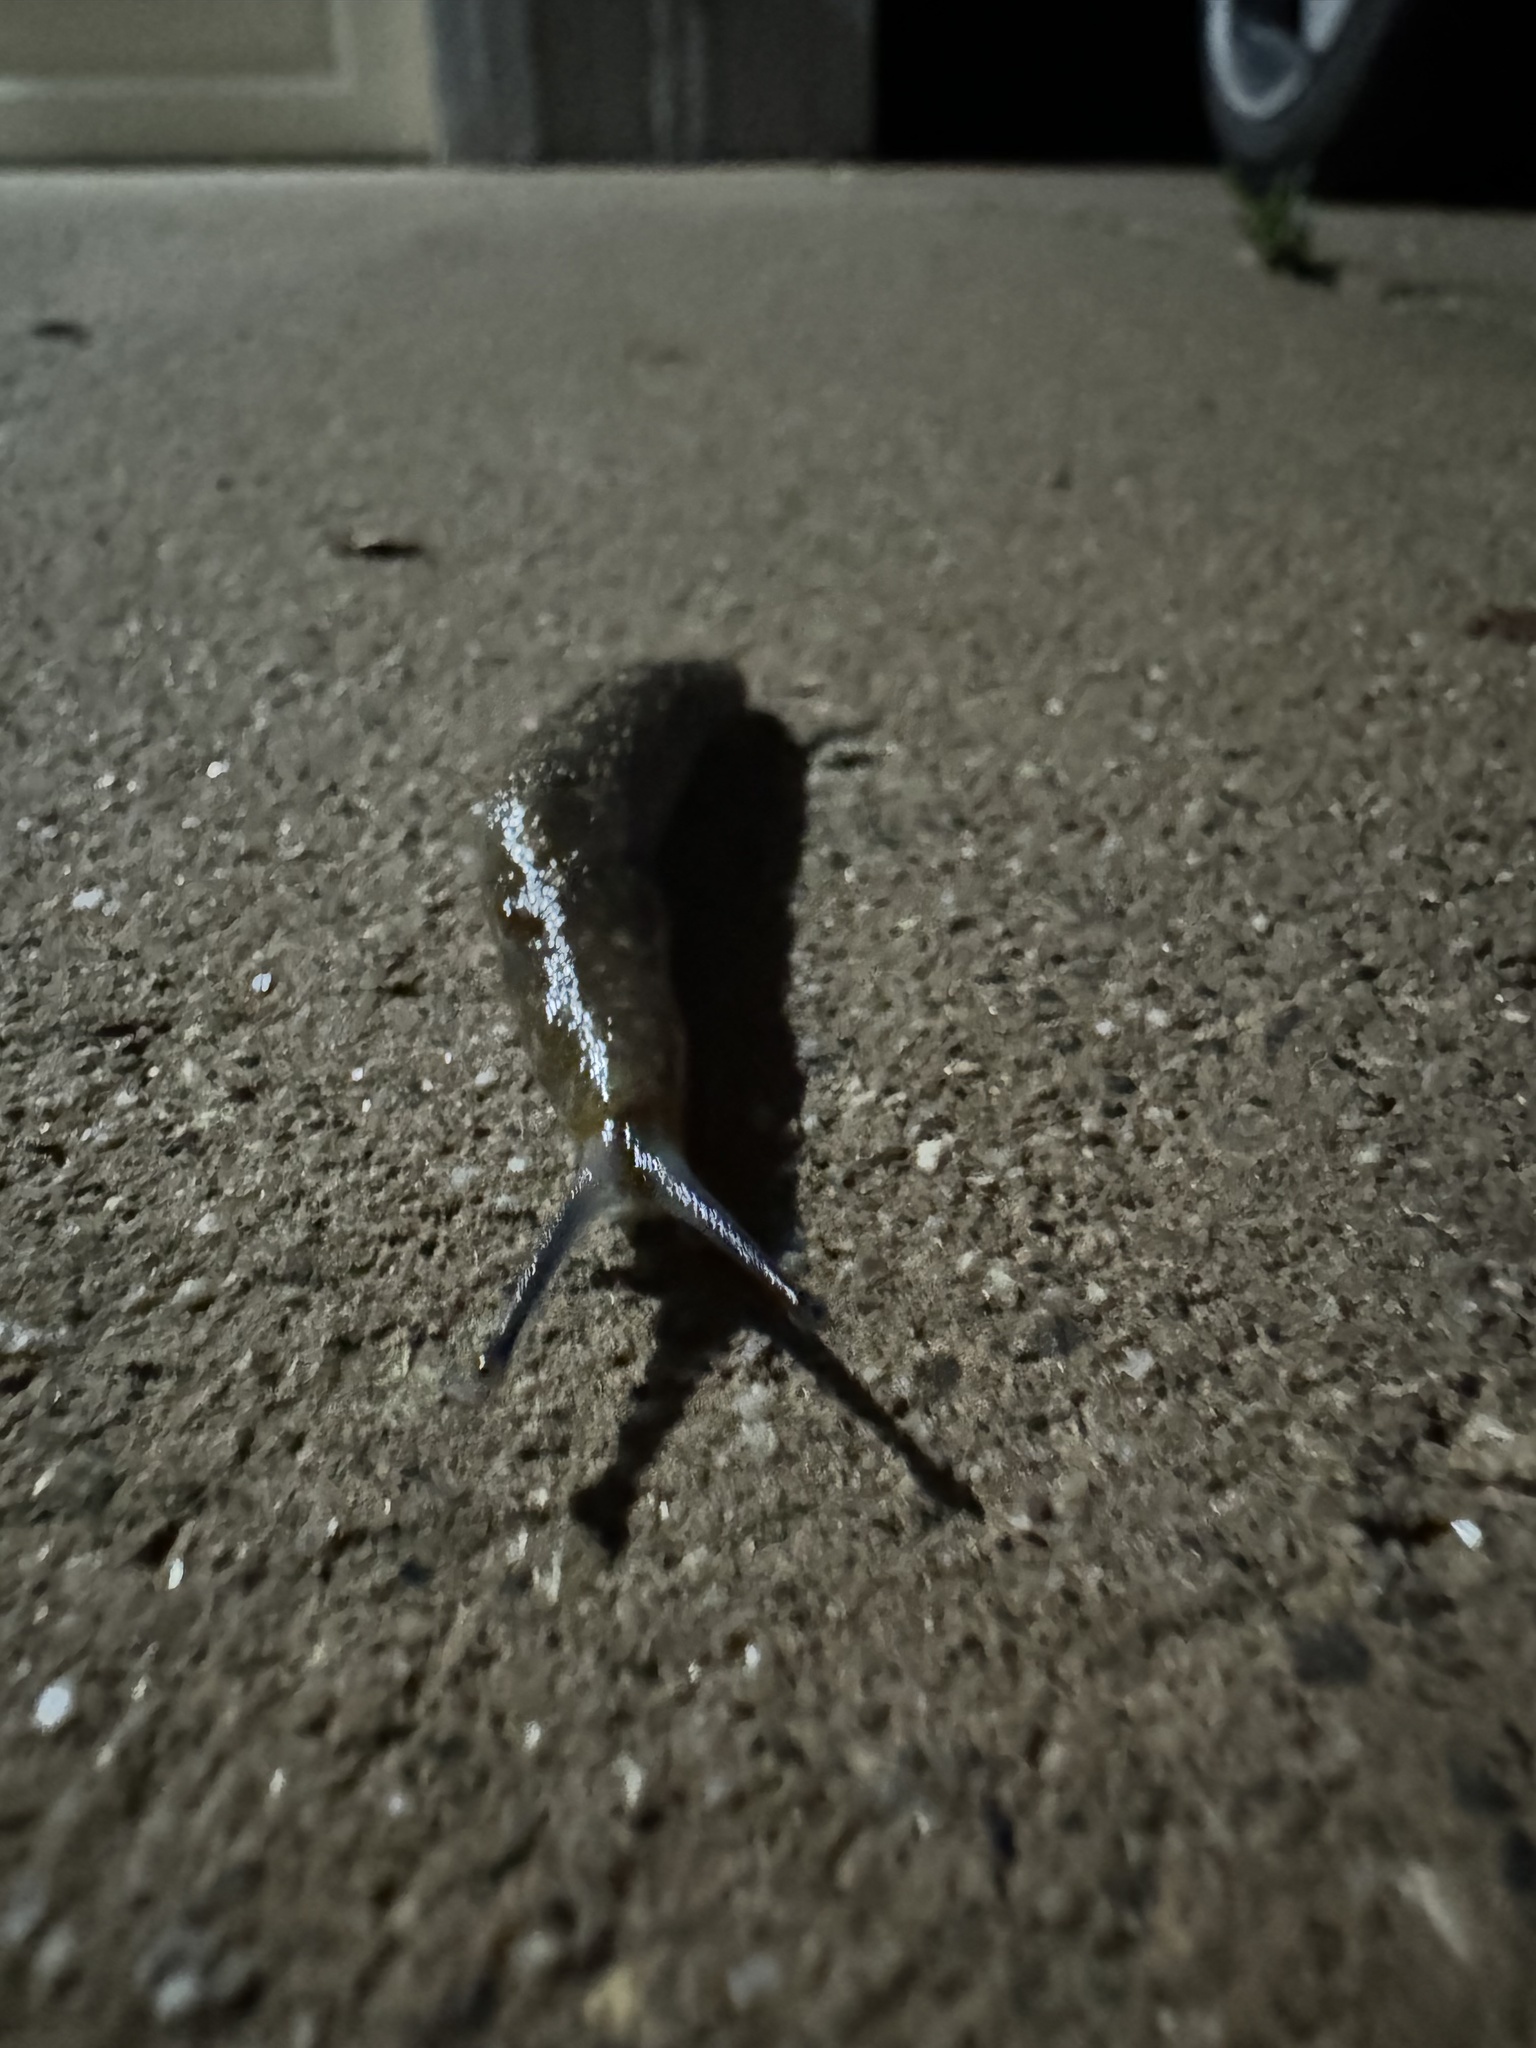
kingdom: Animalia
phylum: Mollusca
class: Gastropoda
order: Stylommatophora
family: Limacidae
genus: Limacus
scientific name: Limacus flavus
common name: Yellow gardenslug
